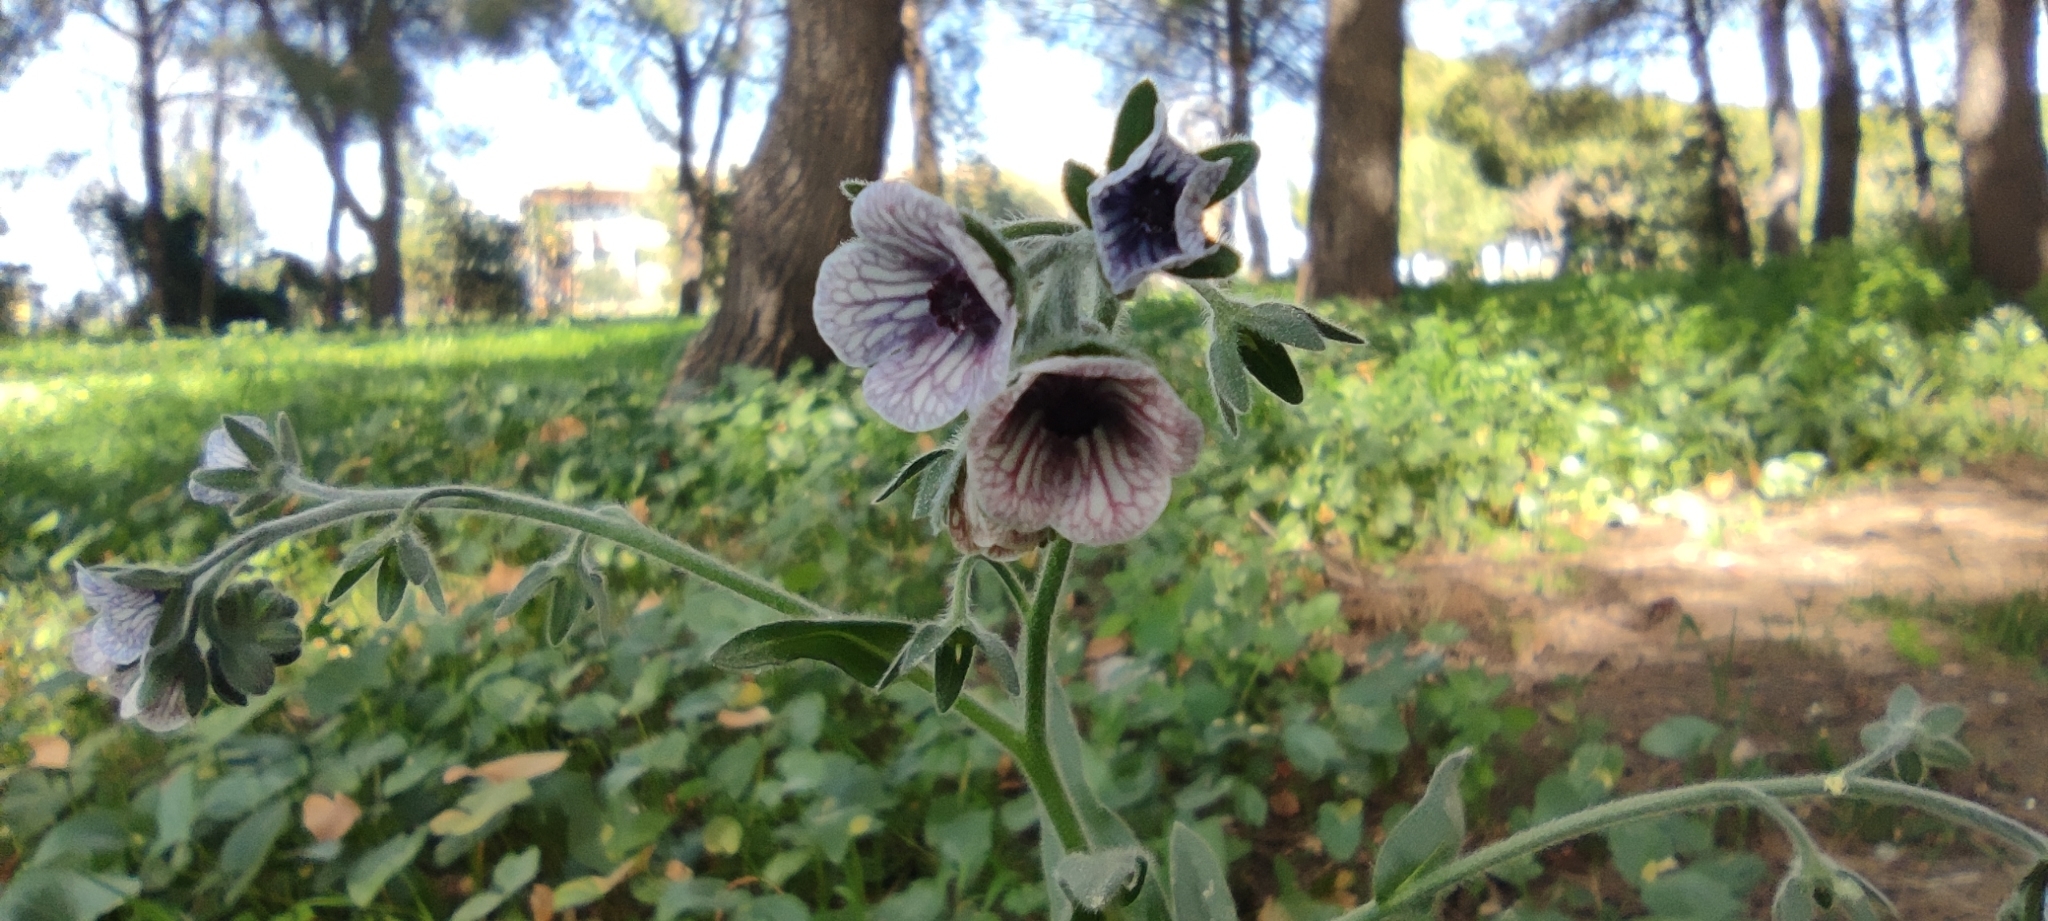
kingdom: Plantae
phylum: Tracheophyta
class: Magnoliopsida
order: Boraginales
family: Boraginaceae
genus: Cynoglossum
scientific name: Cynoglossum creticum
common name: Blue hound's tongue
